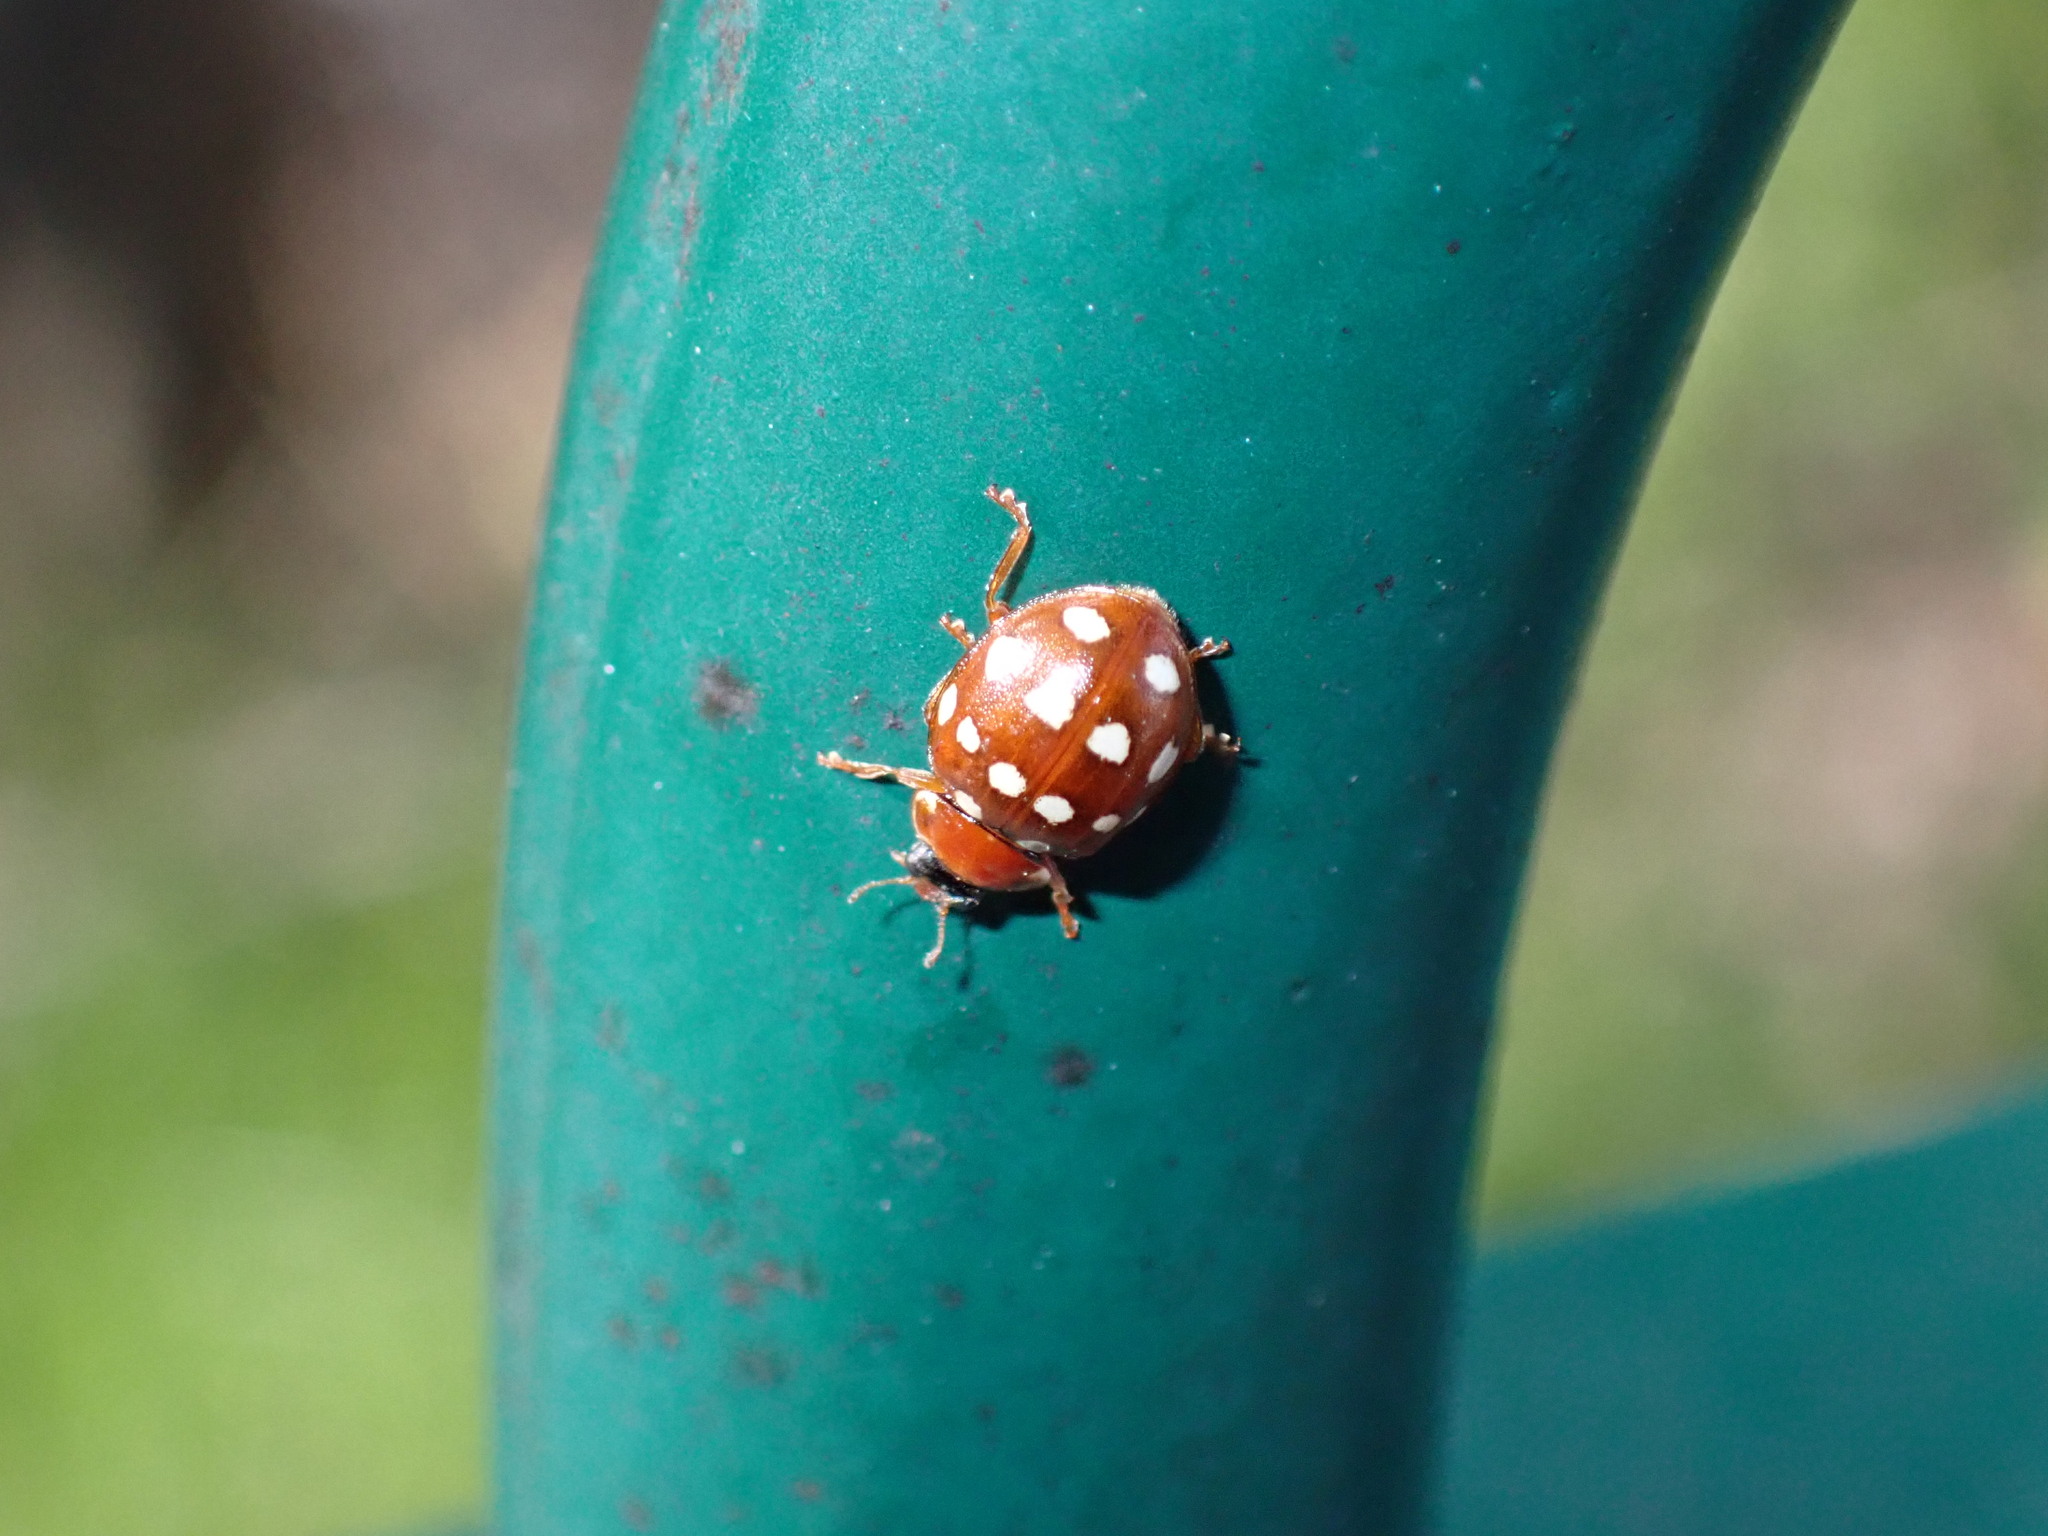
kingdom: Animalia
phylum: Arthropoda
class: Insecta
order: Coleoptera
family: Coccinellidae
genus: Calvia
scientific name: Calvia quatuordecimguttata
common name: Cream-spot ladybird
